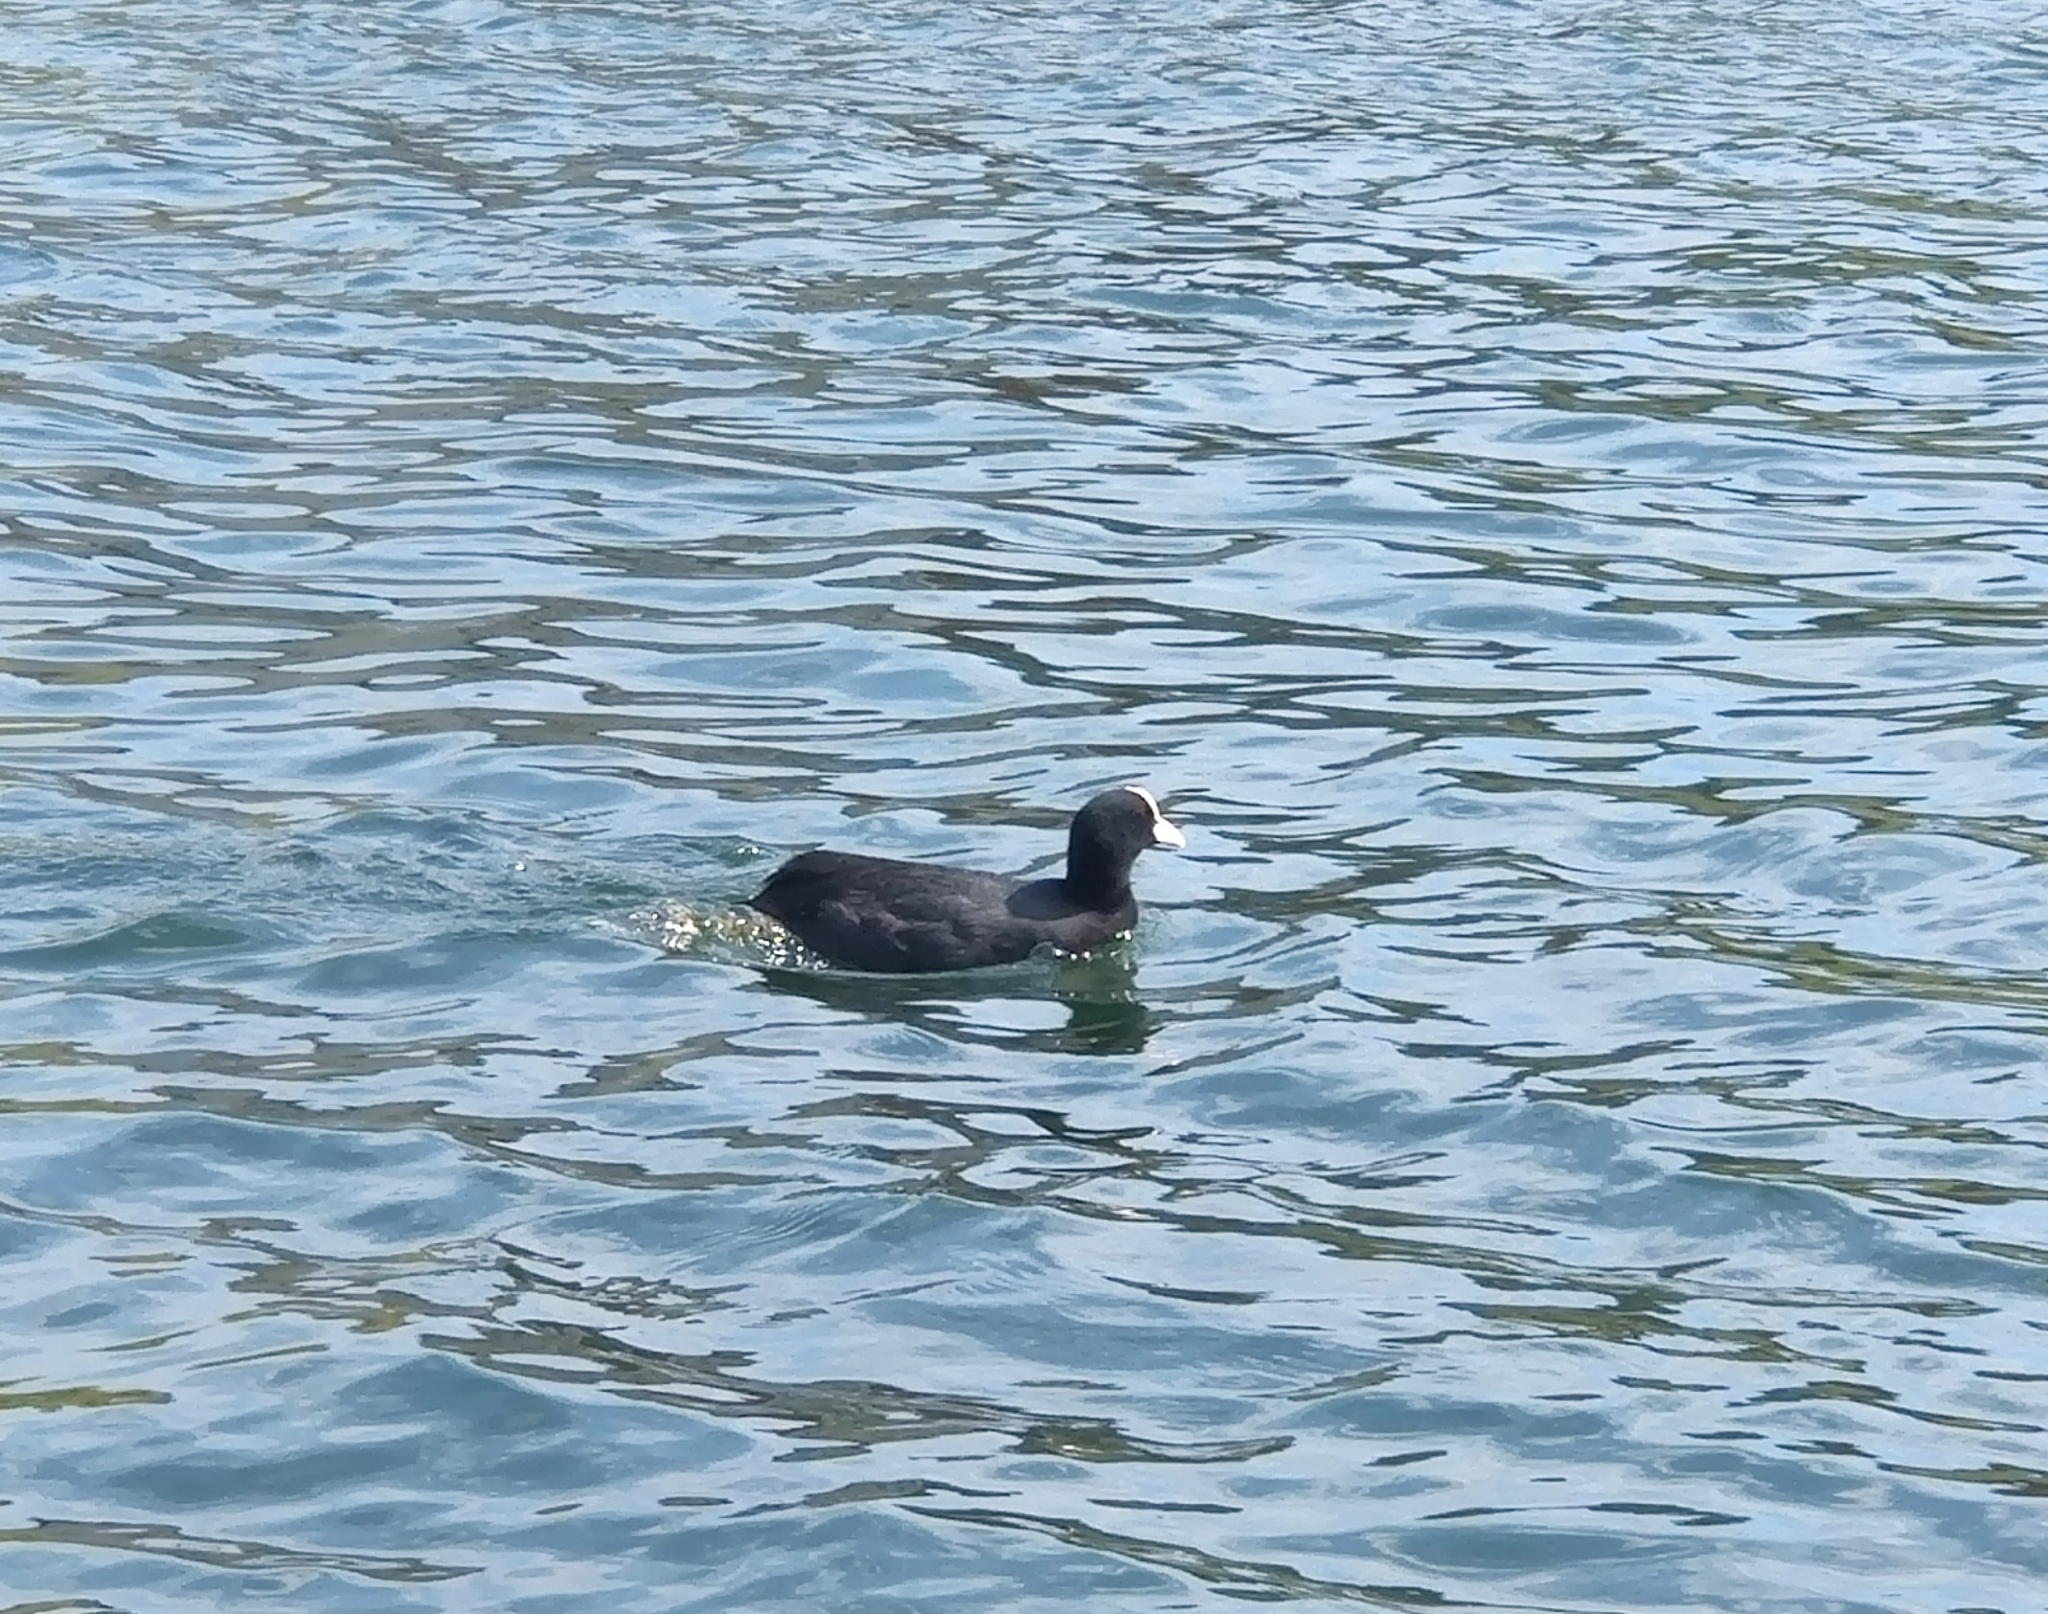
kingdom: Animalia
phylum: Chordata
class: Aves
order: Gruiformes
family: Rallidae
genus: Fulica
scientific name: Fulica atra
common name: Eurasian coot
